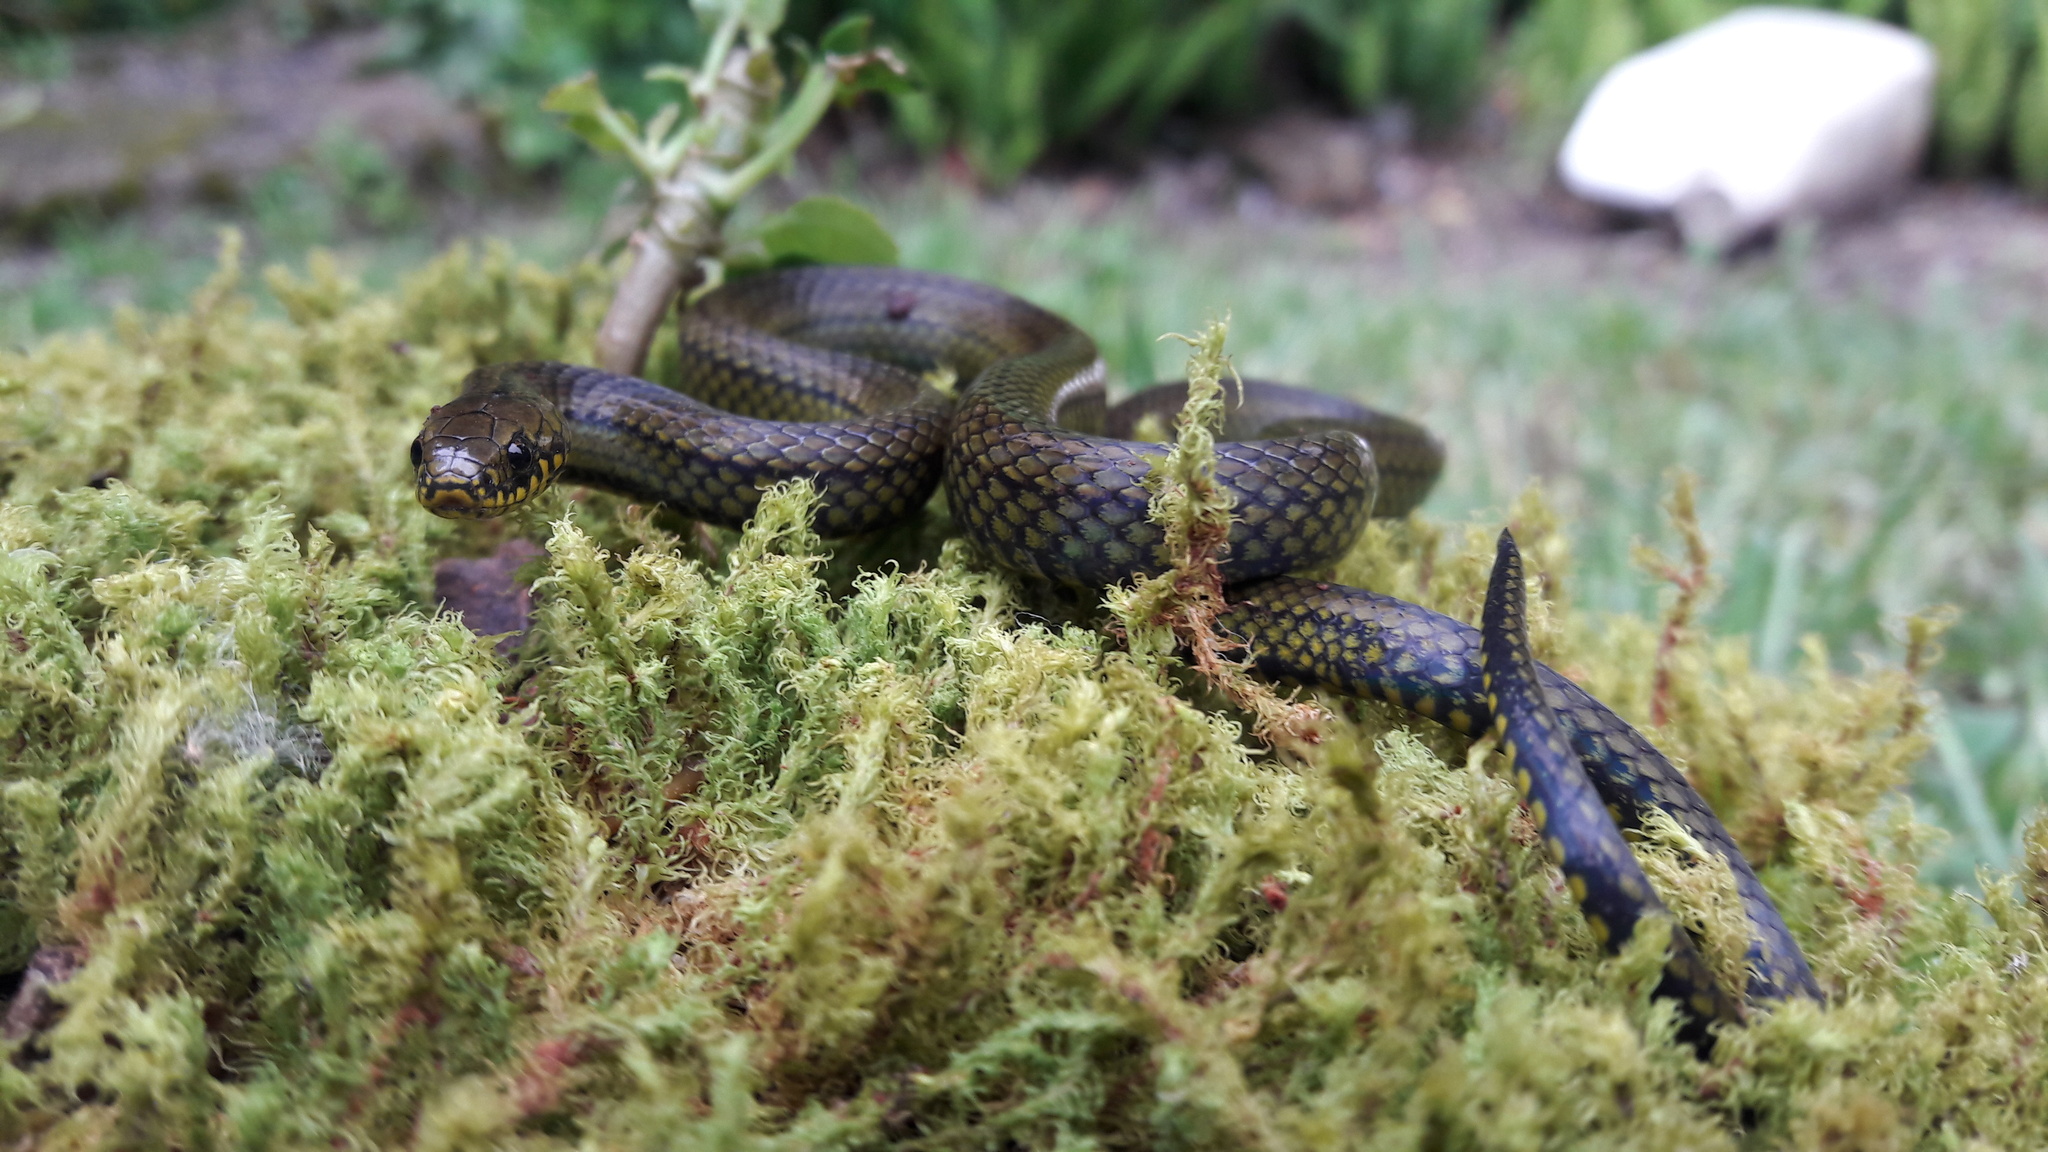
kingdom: Animalia
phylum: Chordata
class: Squamata
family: Colubridae
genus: Rhadinaea
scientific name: Rhadinaea calligaster
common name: Thick graceful brown snake
